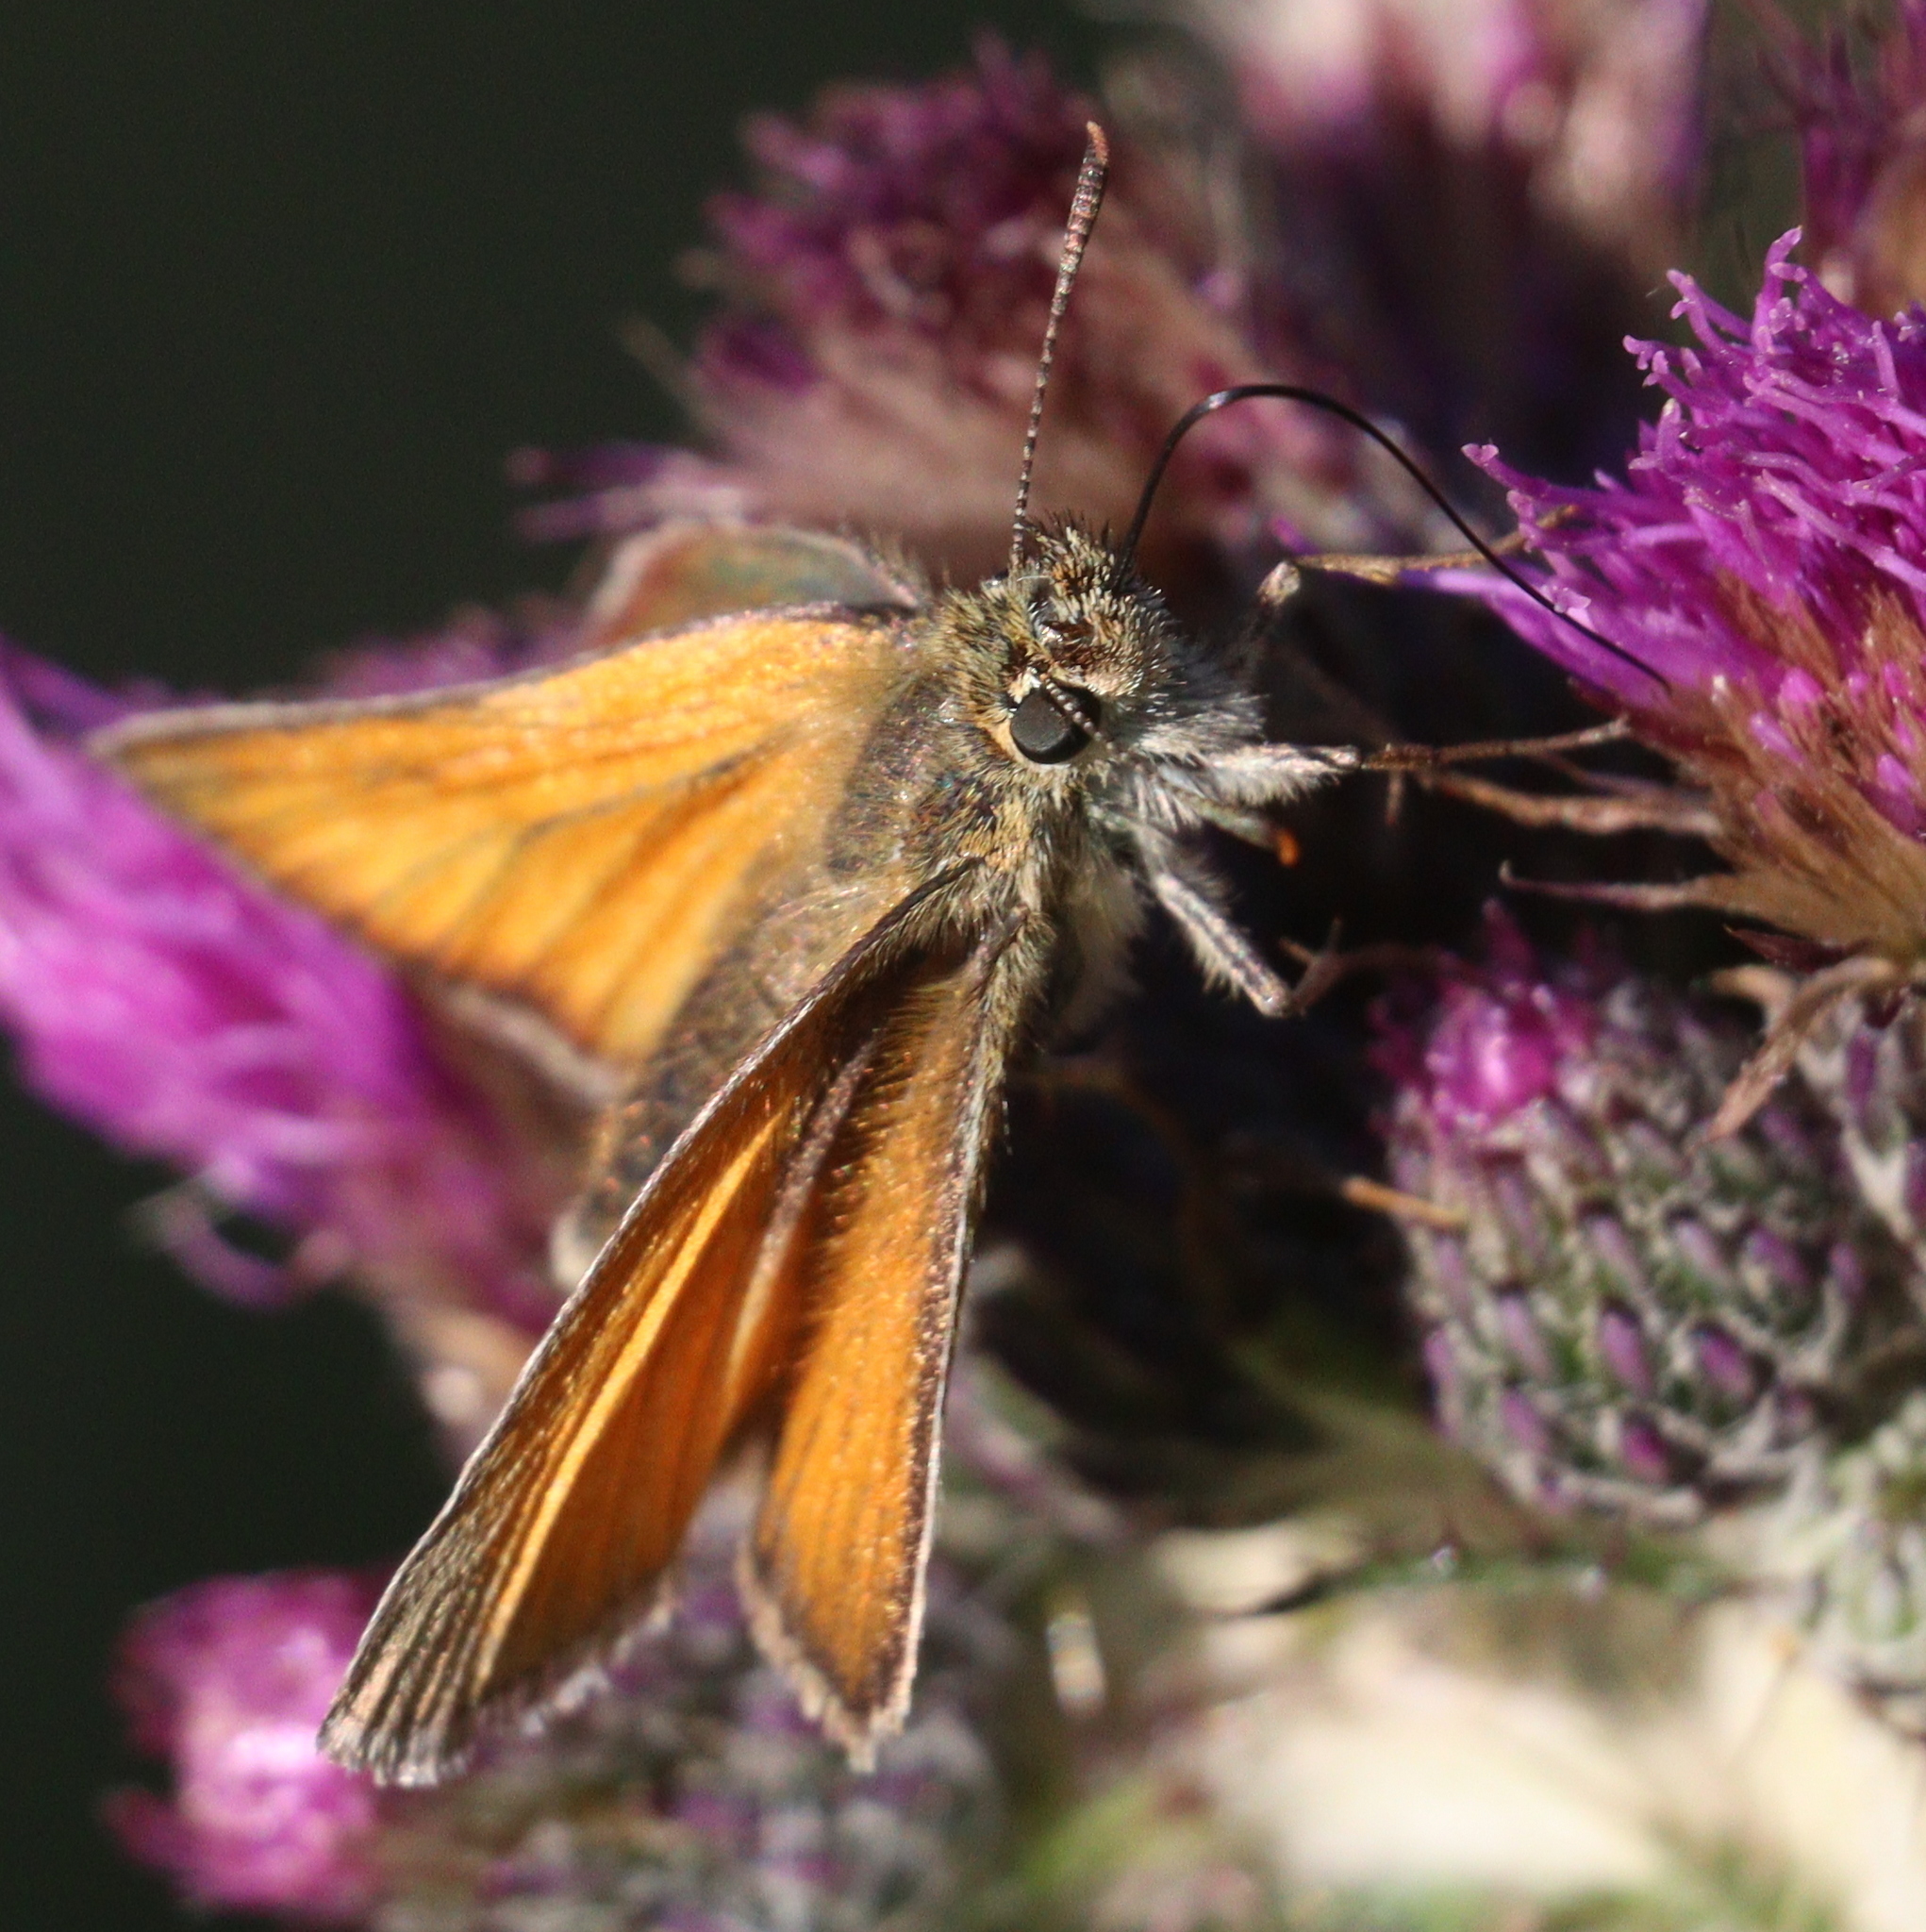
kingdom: Animalia
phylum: Arthropoda
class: Insecta
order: Lepidoptera
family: Hesperiidae
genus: Thymelicus
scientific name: Thymelicus sylvestris
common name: Small skipper
